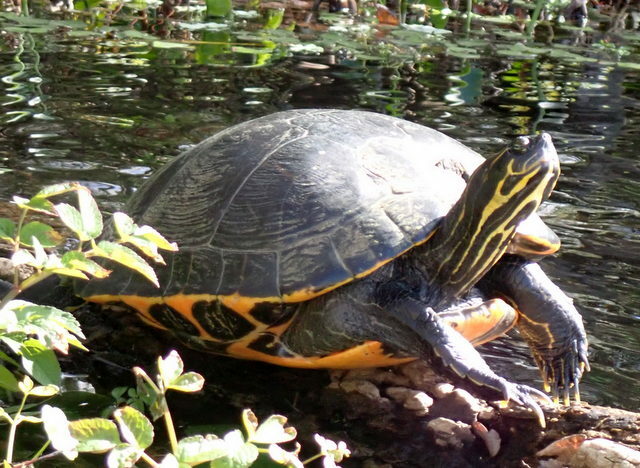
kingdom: Animalia
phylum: Chordata
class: Testudines
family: Emydidae
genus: Pseudemys
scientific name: Pseudemys concinna
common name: Eastern river cooter
